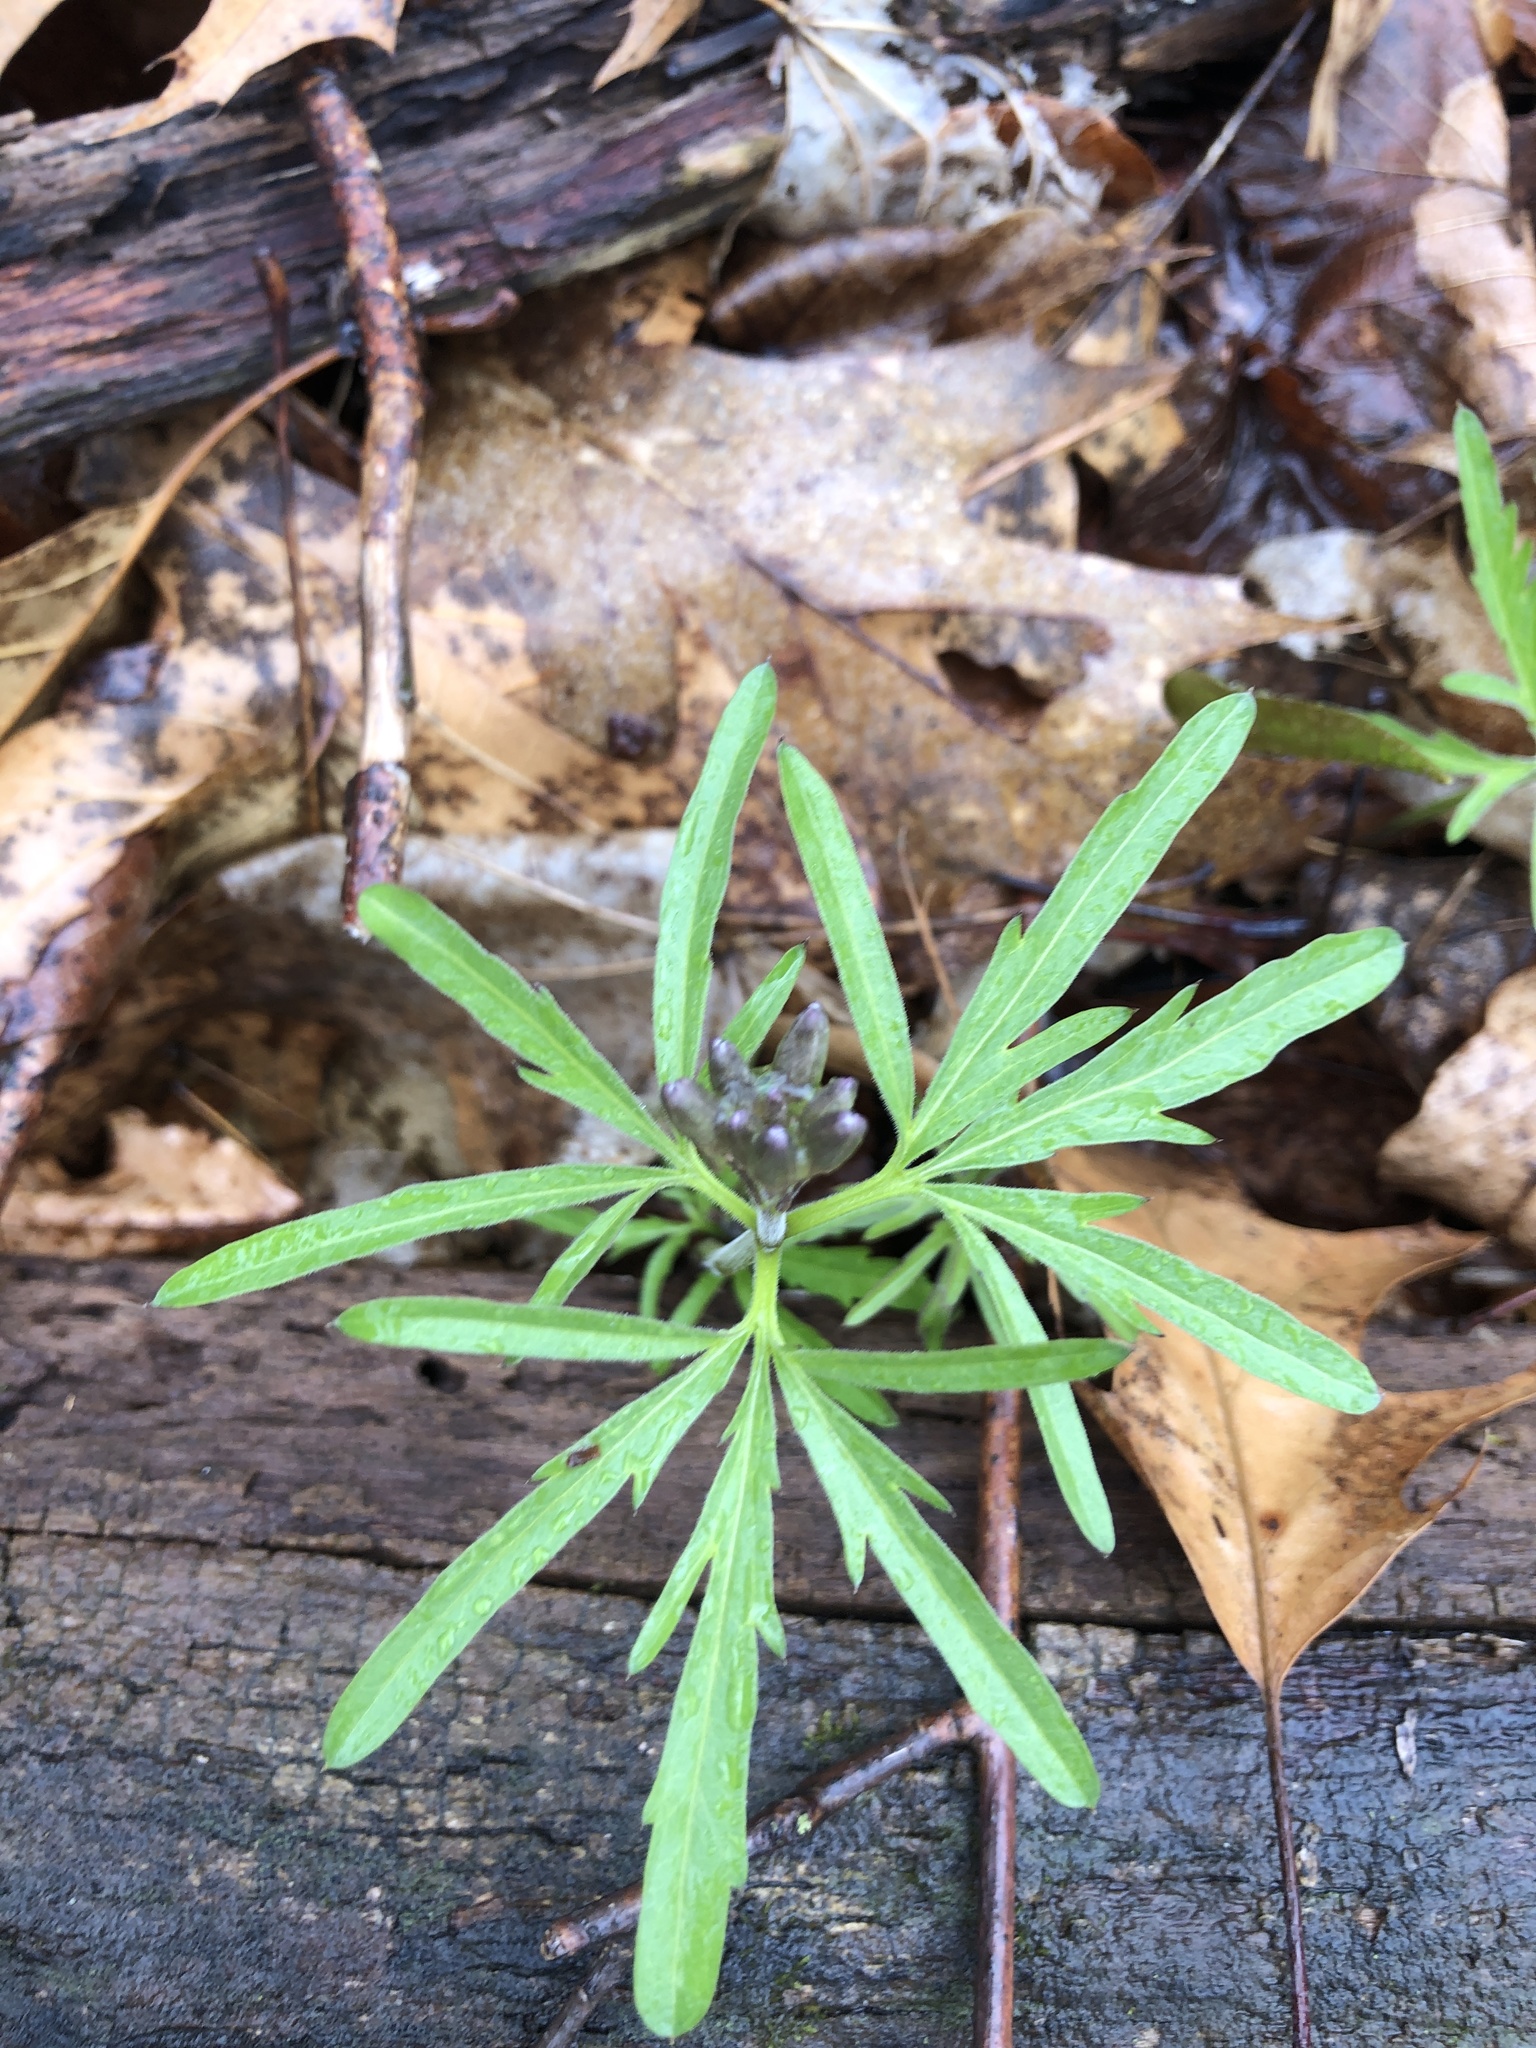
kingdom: Plantae
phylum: Tracheophyta
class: Magnoliopsida
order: Brassicales
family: Brassicaceae
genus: Cardamine
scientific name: Cardamine concatenata
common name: Cut-leaf toothcup
